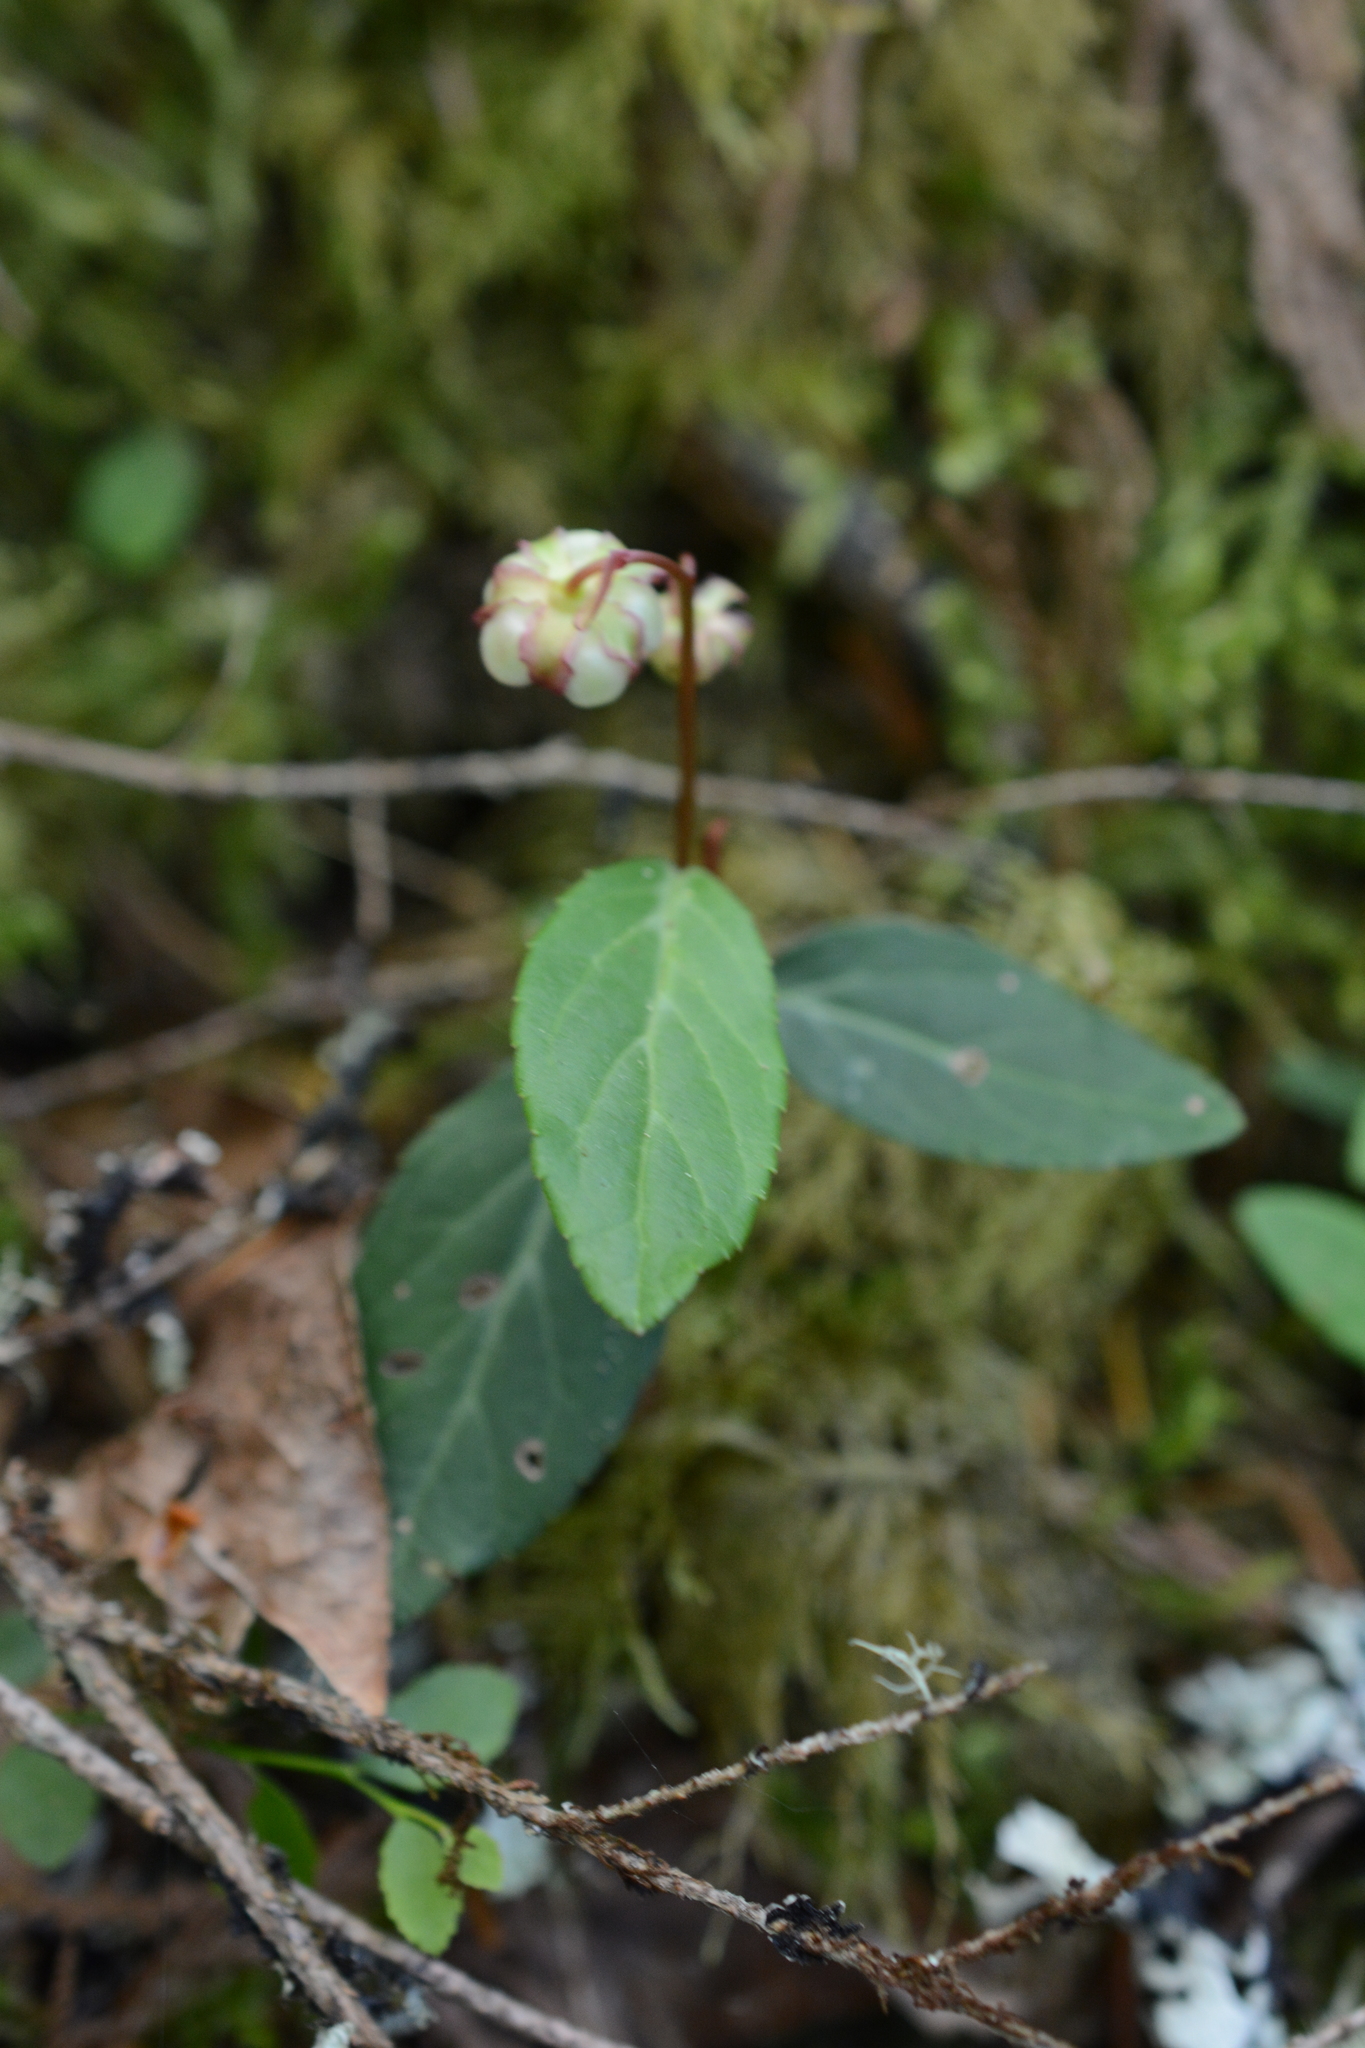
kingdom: Plantae
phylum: Tracheophyta
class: Magnoliopsida
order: Ericales
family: Ericaceae
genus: Chimaphila
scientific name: Chimaphila menziesii
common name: Menzies' pipsissewa
